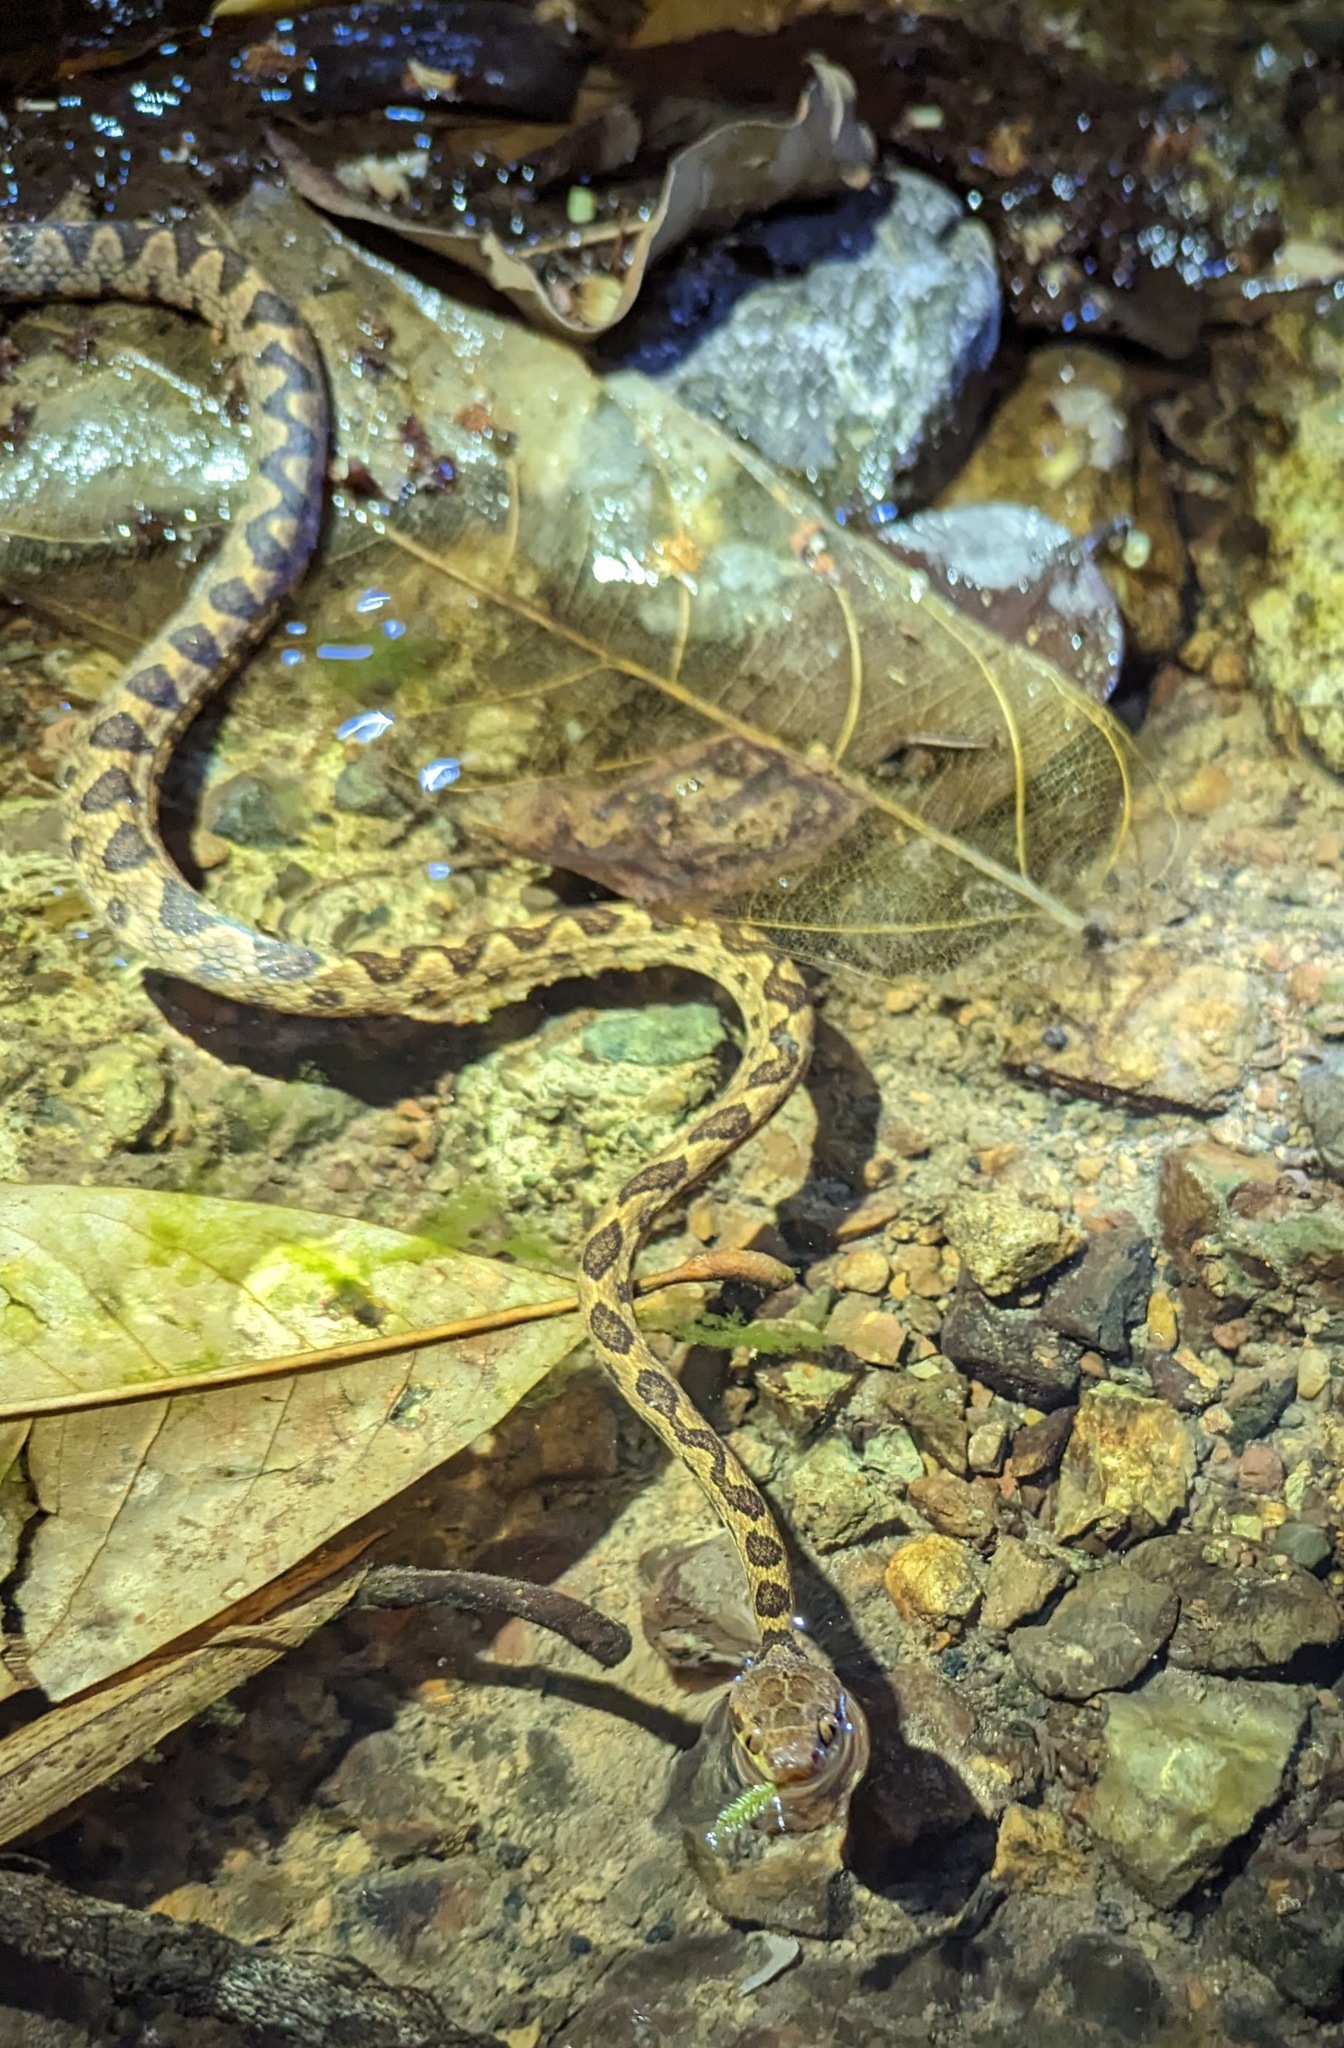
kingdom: Animalia
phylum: Chordata
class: Squamata
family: Colubridae
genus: Leptodeira
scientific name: Leptodeira ornata
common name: Northern cat-eyed snake
